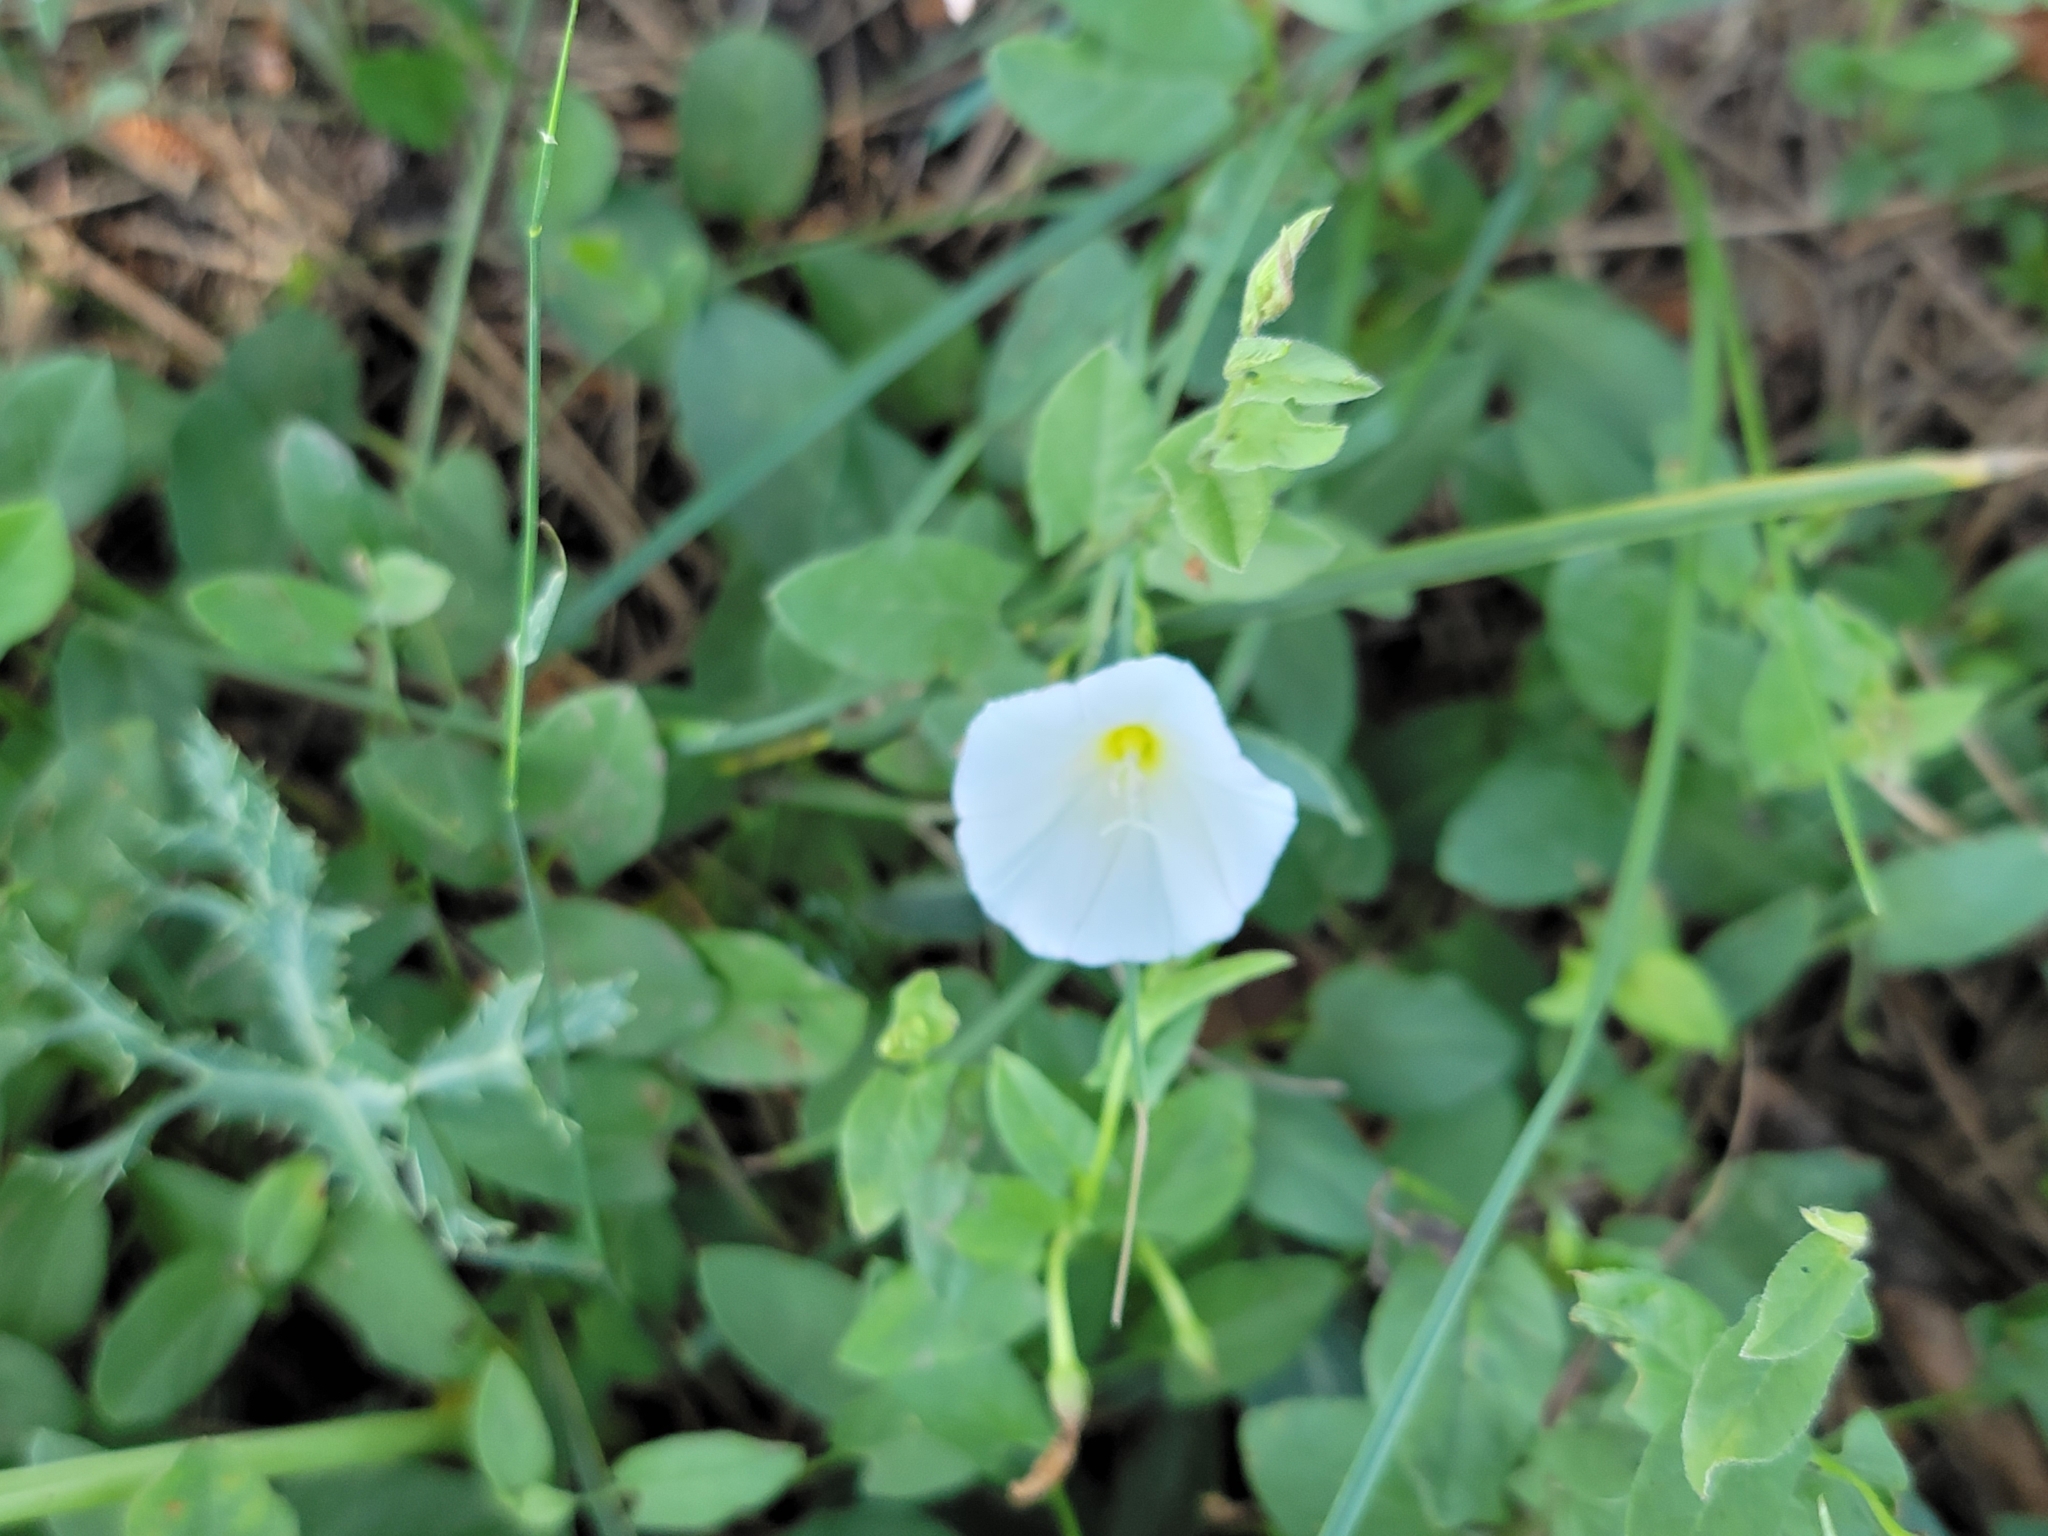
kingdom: Plantae
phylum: Tracheophyta
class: Magnoliopsida
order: Solanales
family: Convolvulaceae
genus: Convolvulus
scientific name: Convolvulus arvensis
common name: Field bindweed
